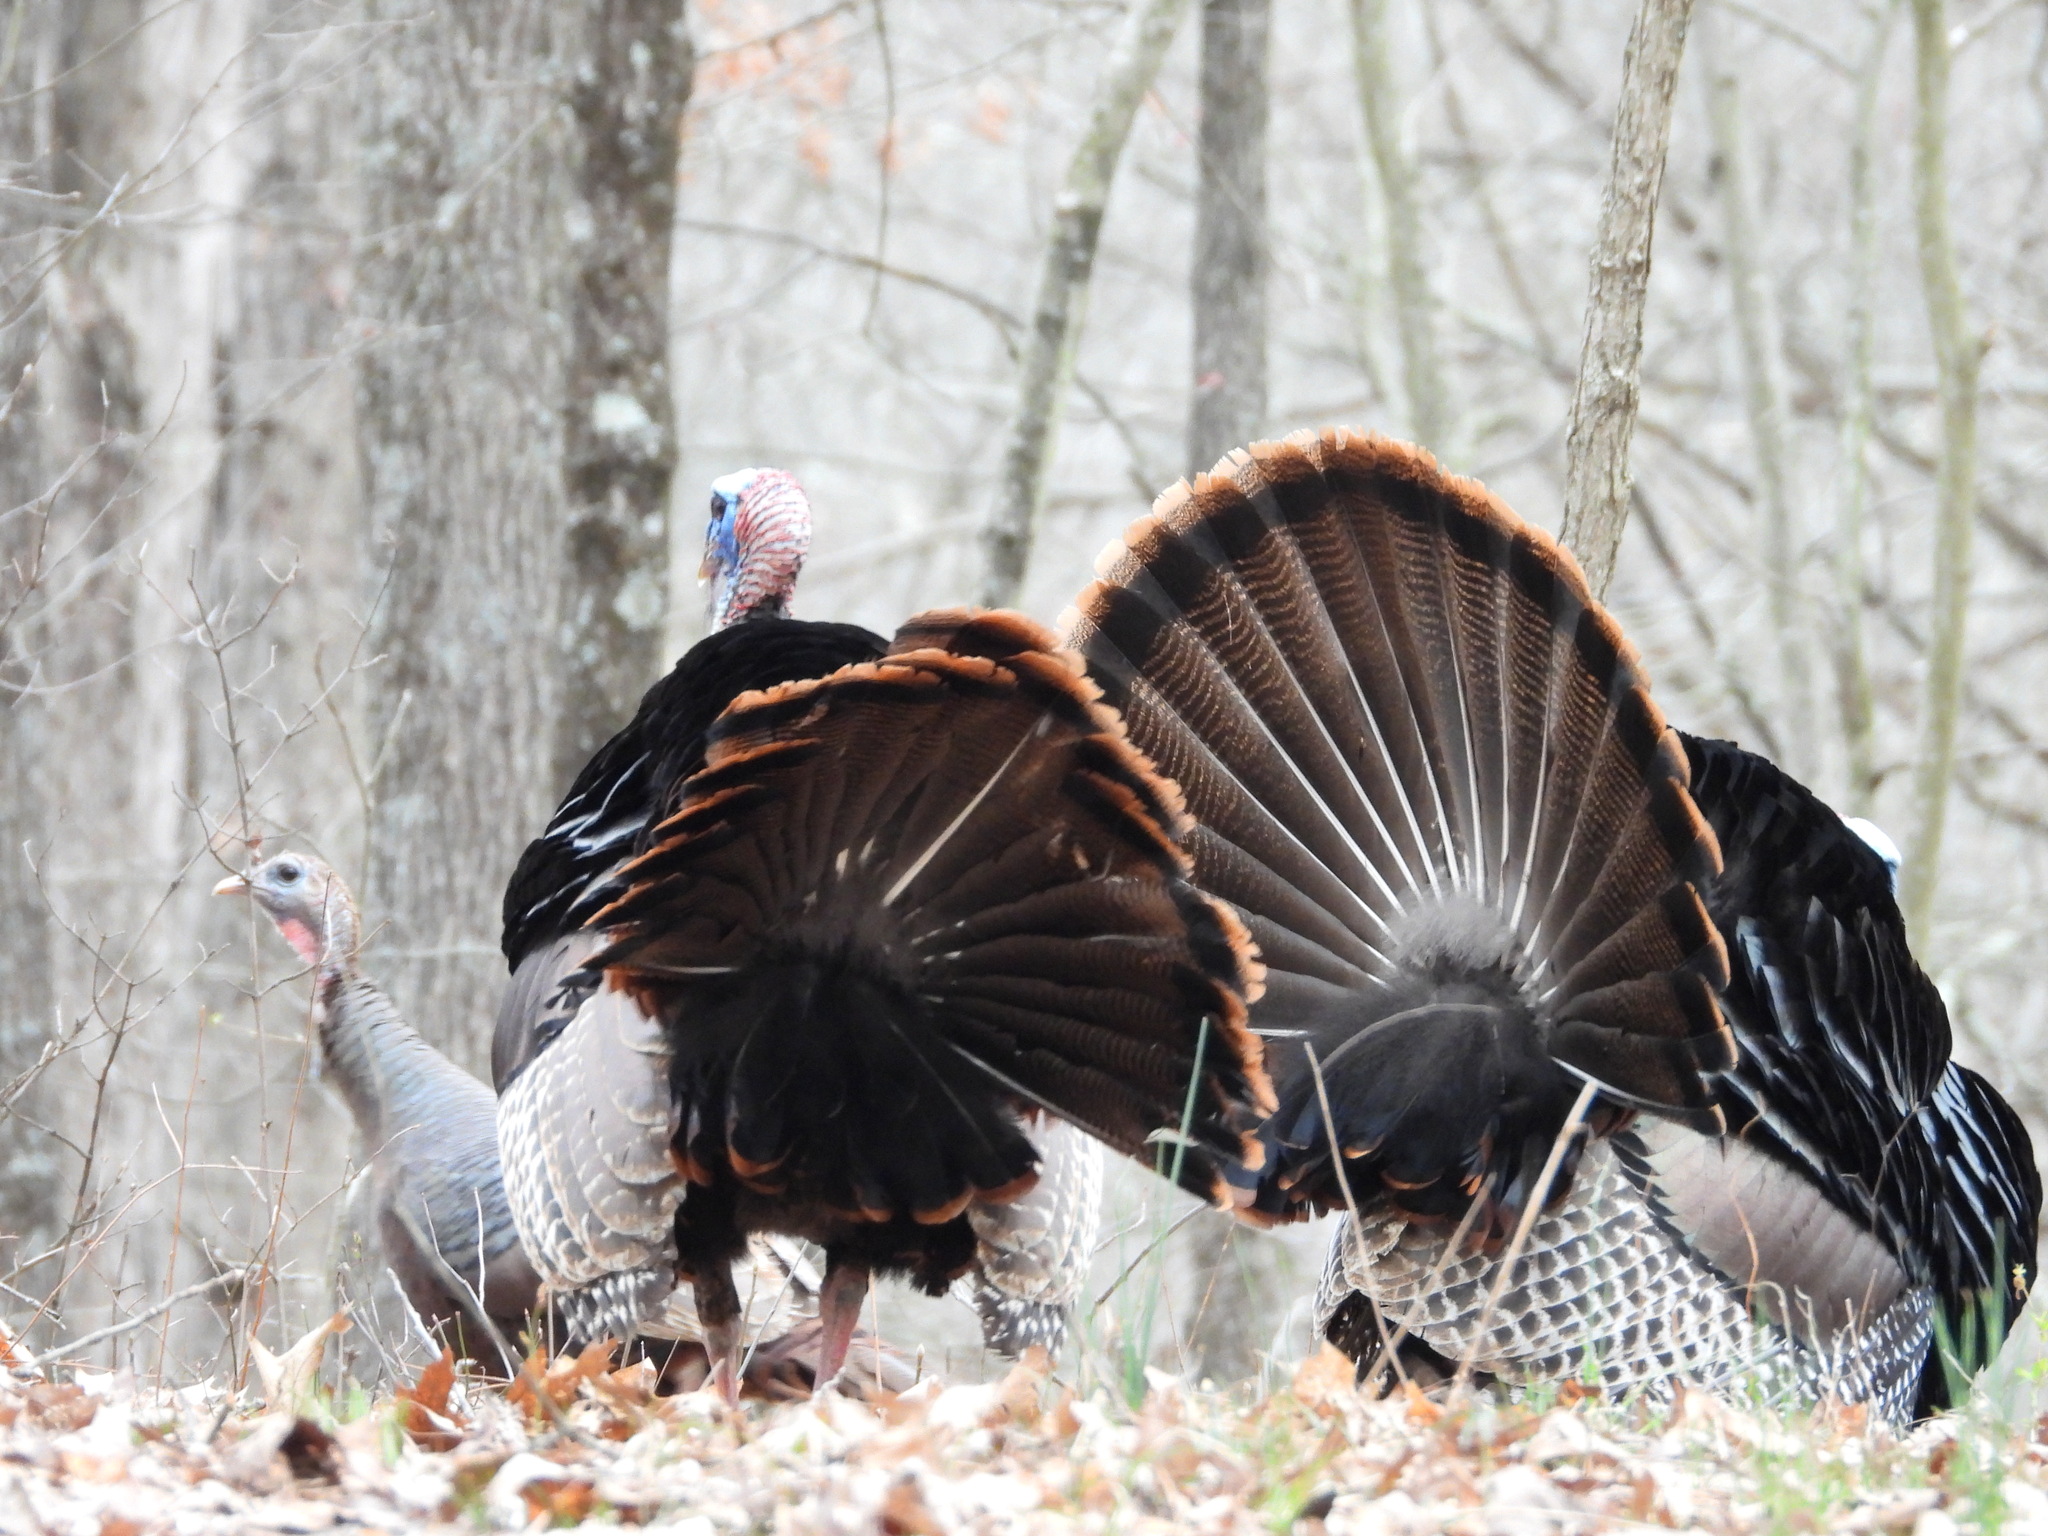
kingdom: Animalia
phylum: Chordata
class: Aves
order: Galliformes
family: Phasianidae
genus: Meleagris
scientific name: Meleagris gallopavo
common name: Wild turkey
